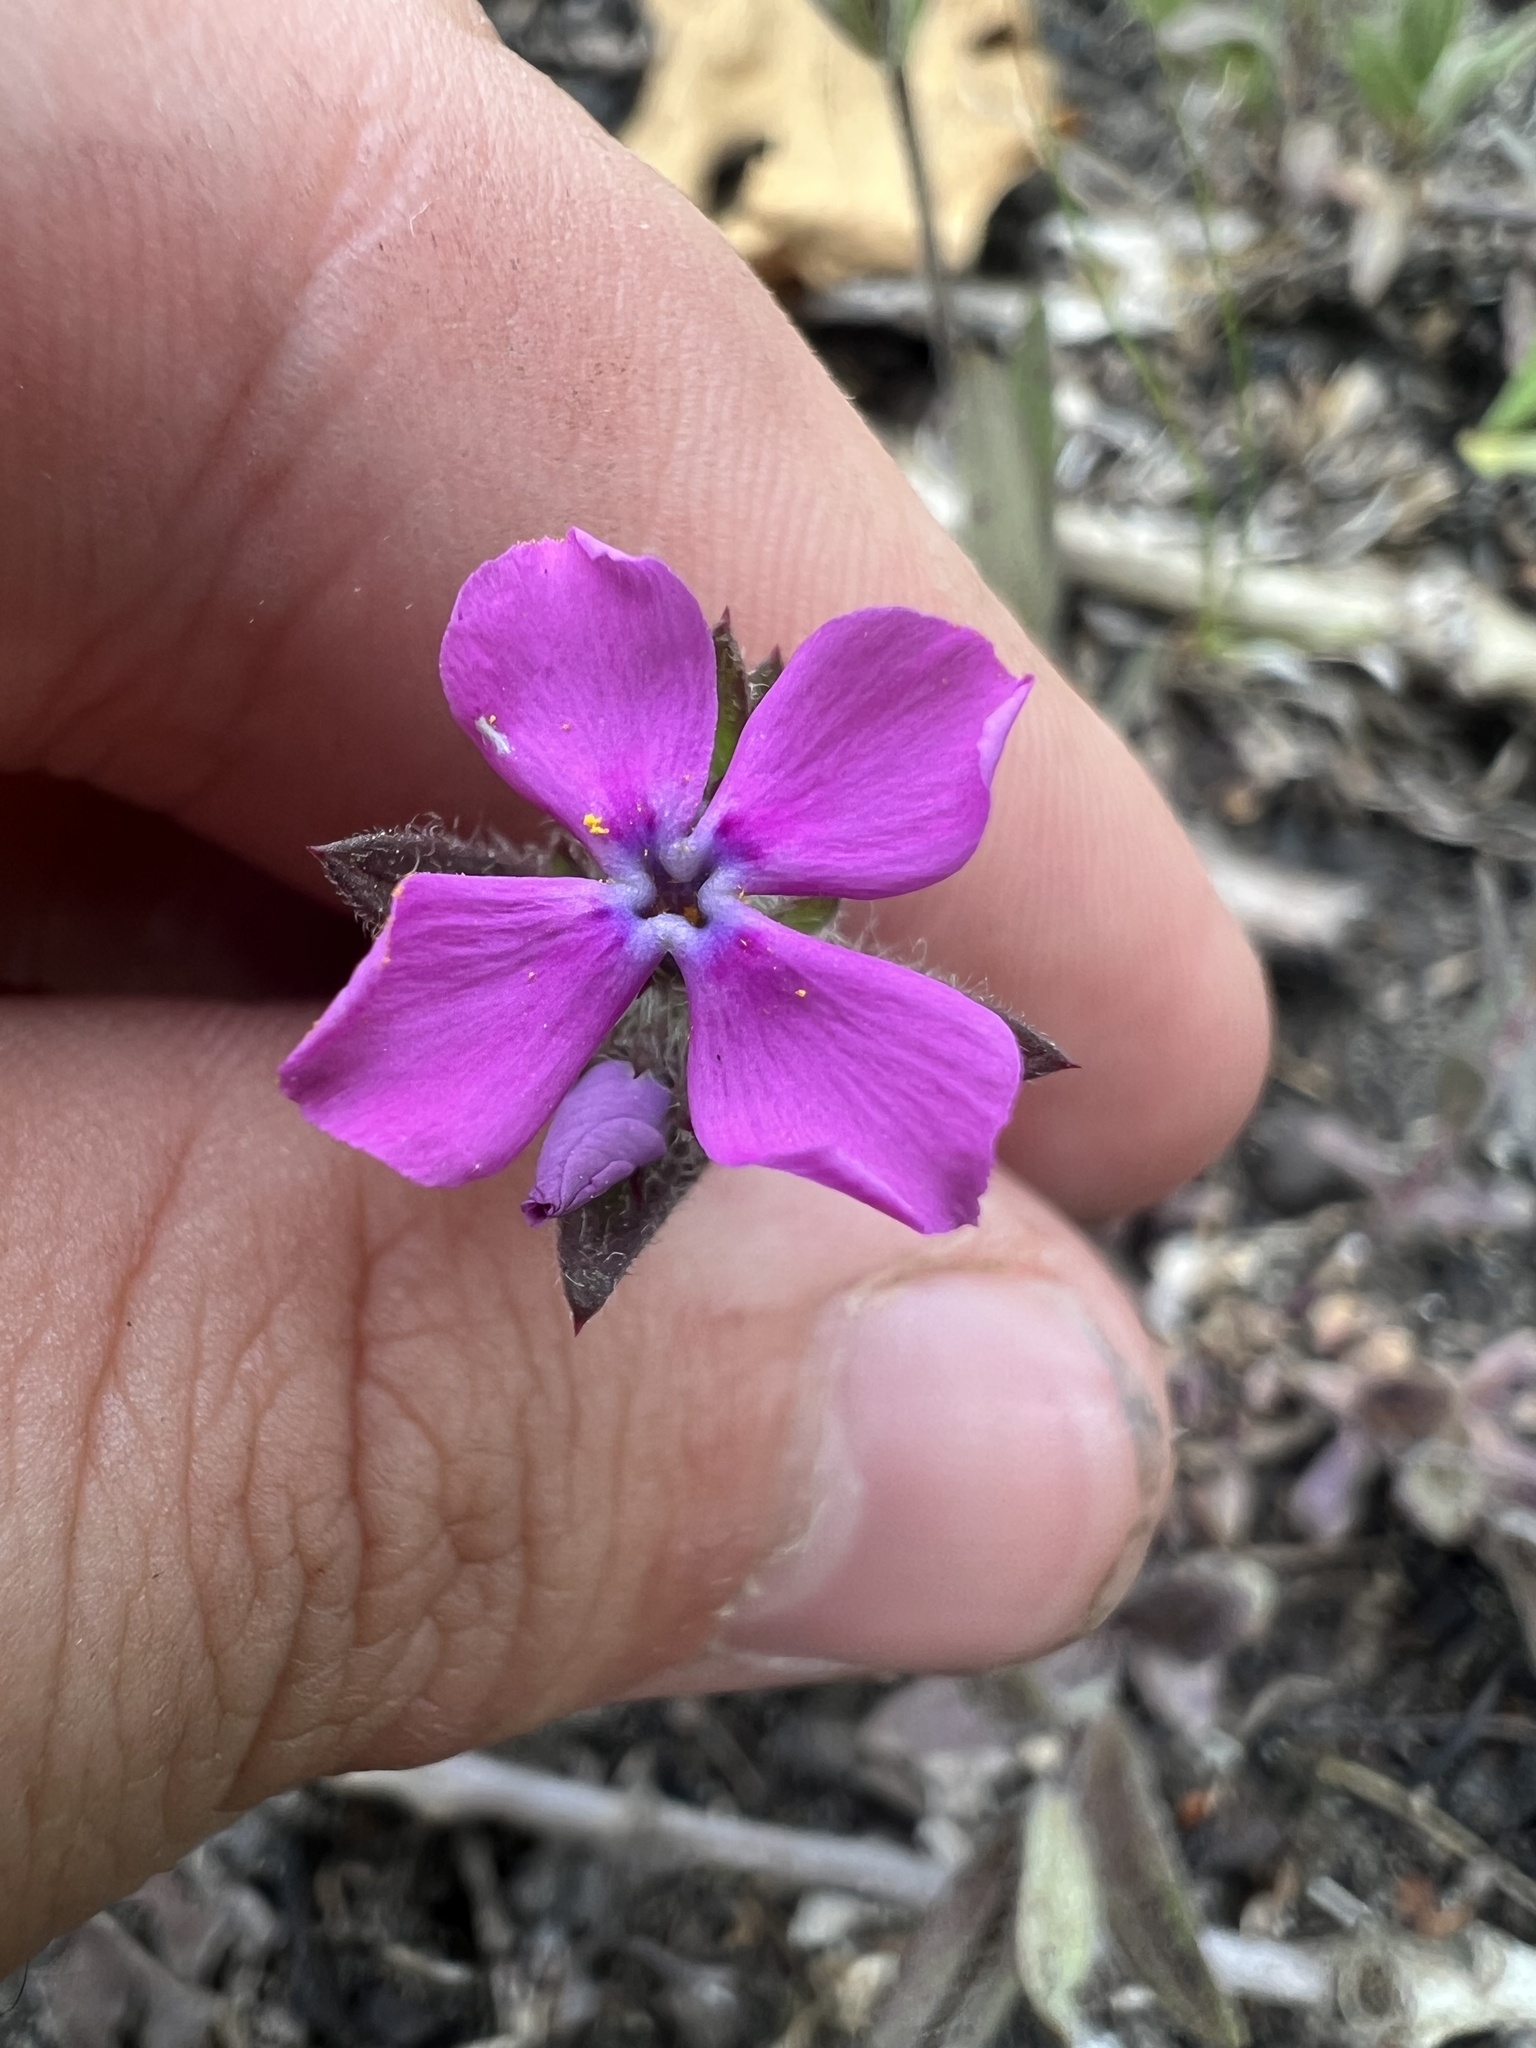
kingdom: Plantae
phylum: Tracheophyta
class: Magnoliopsida
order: Ericales
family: Polemoniaceae
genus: Phlox
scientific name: Phlox amoena
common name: Hairy phlox
